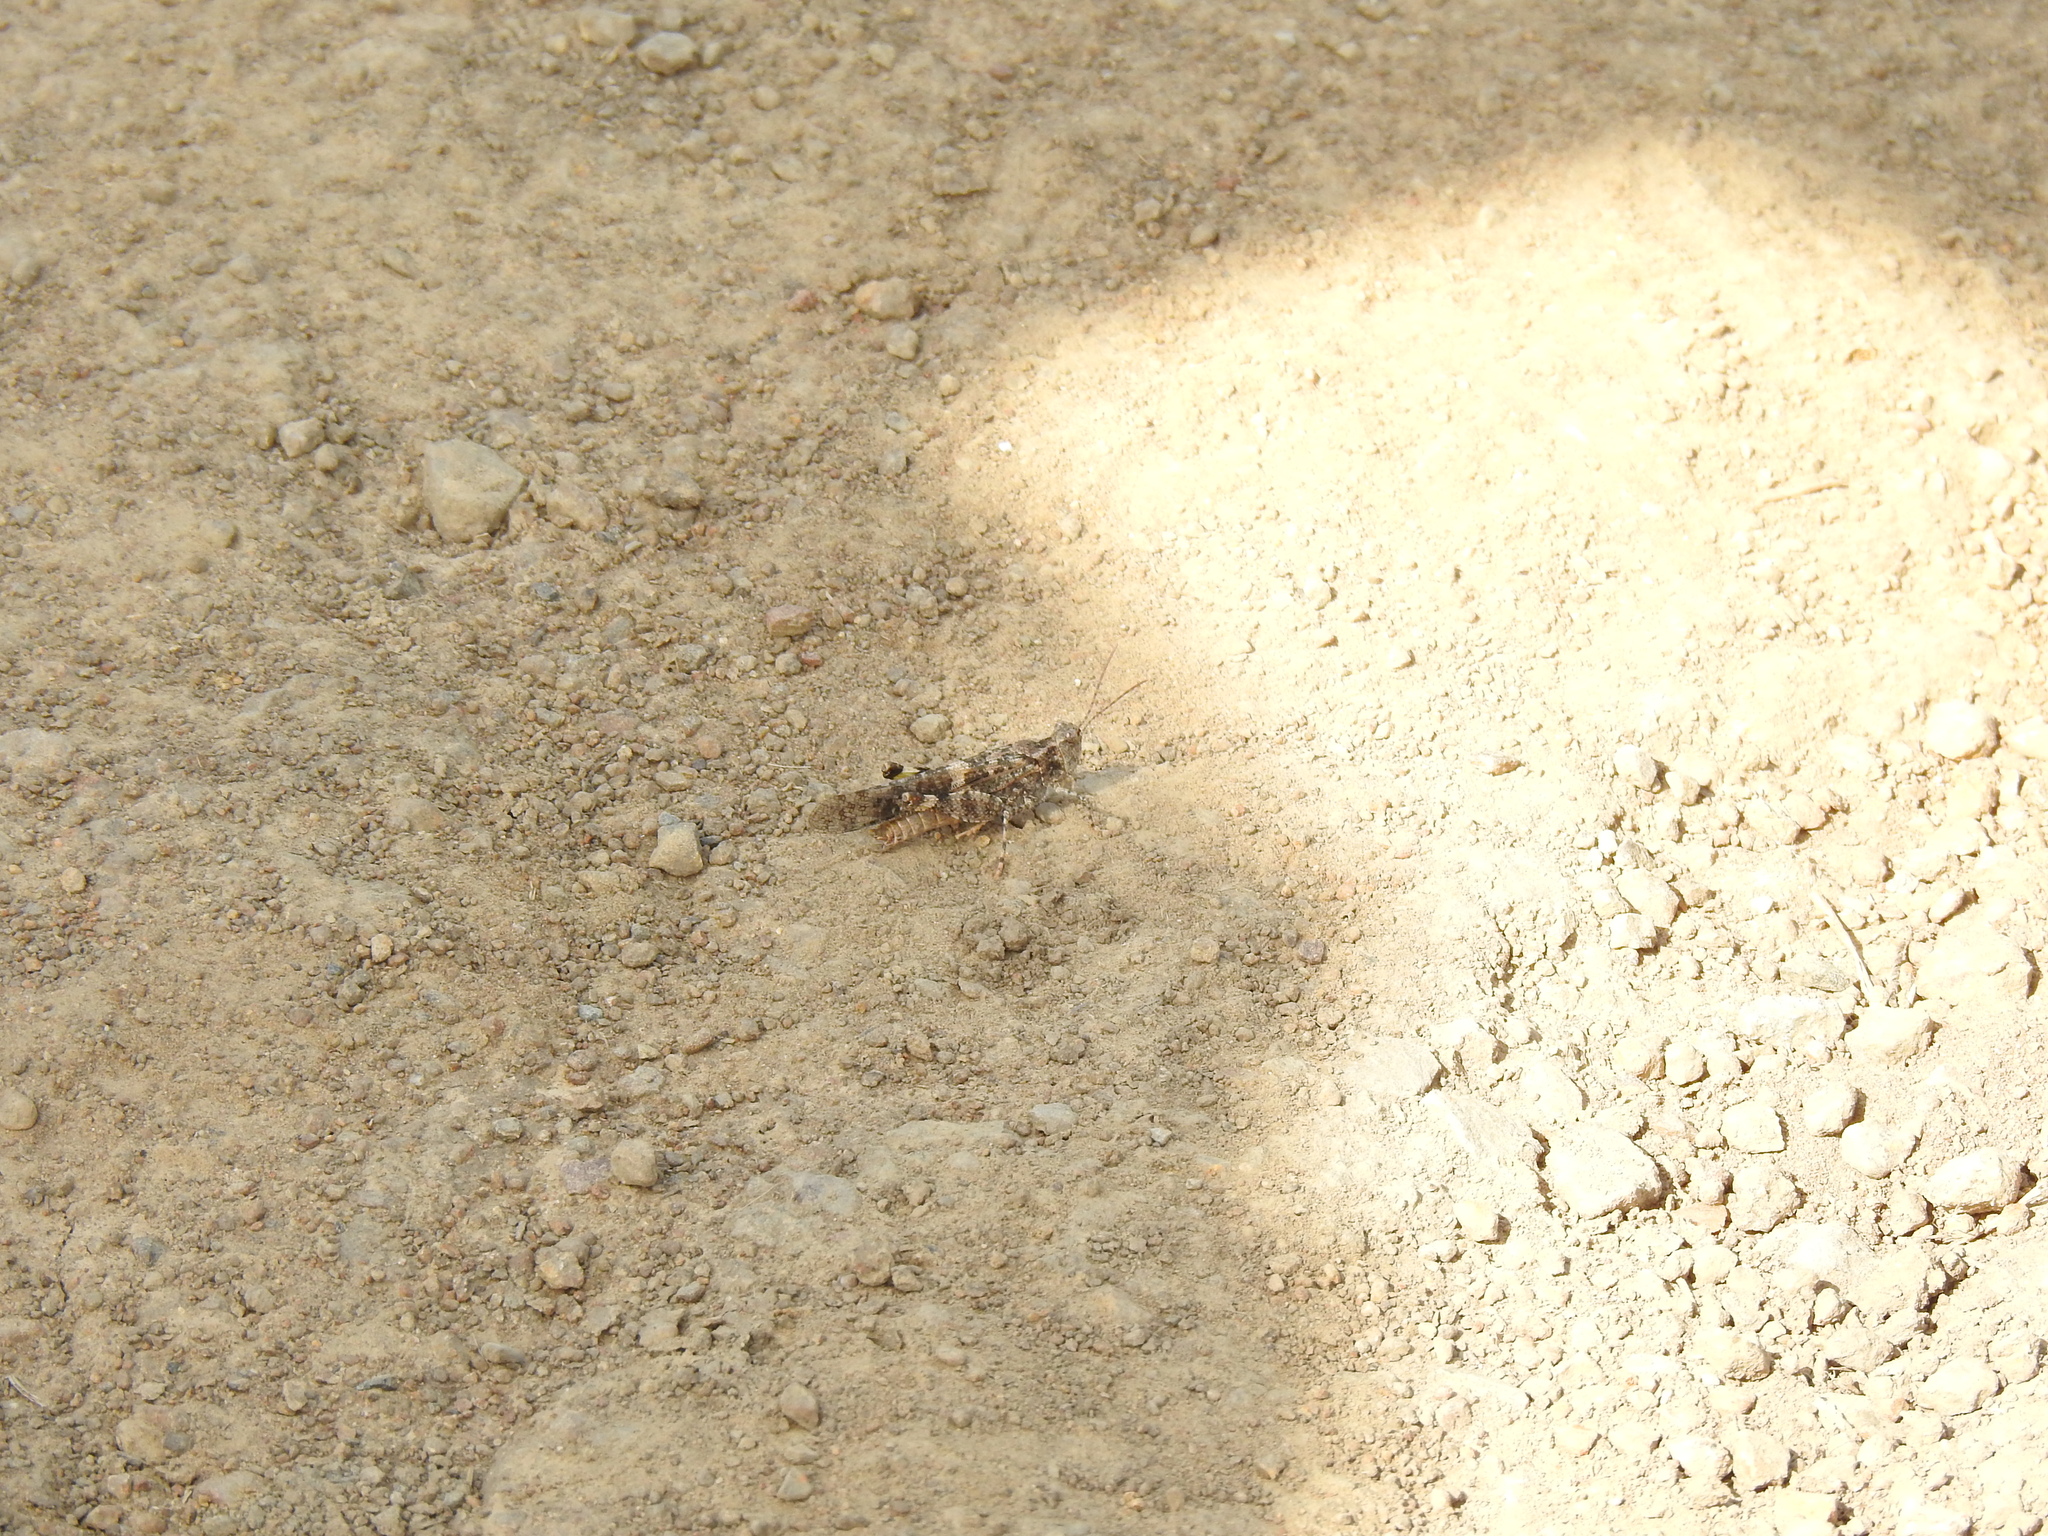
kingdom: Animalia
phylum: Arthropoda
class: Insecta
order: Orthoptera
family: Acrididae
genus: Trimerotropis
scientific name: Trimerotropis pallidipennis
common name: Pallid-winged grasshopper
